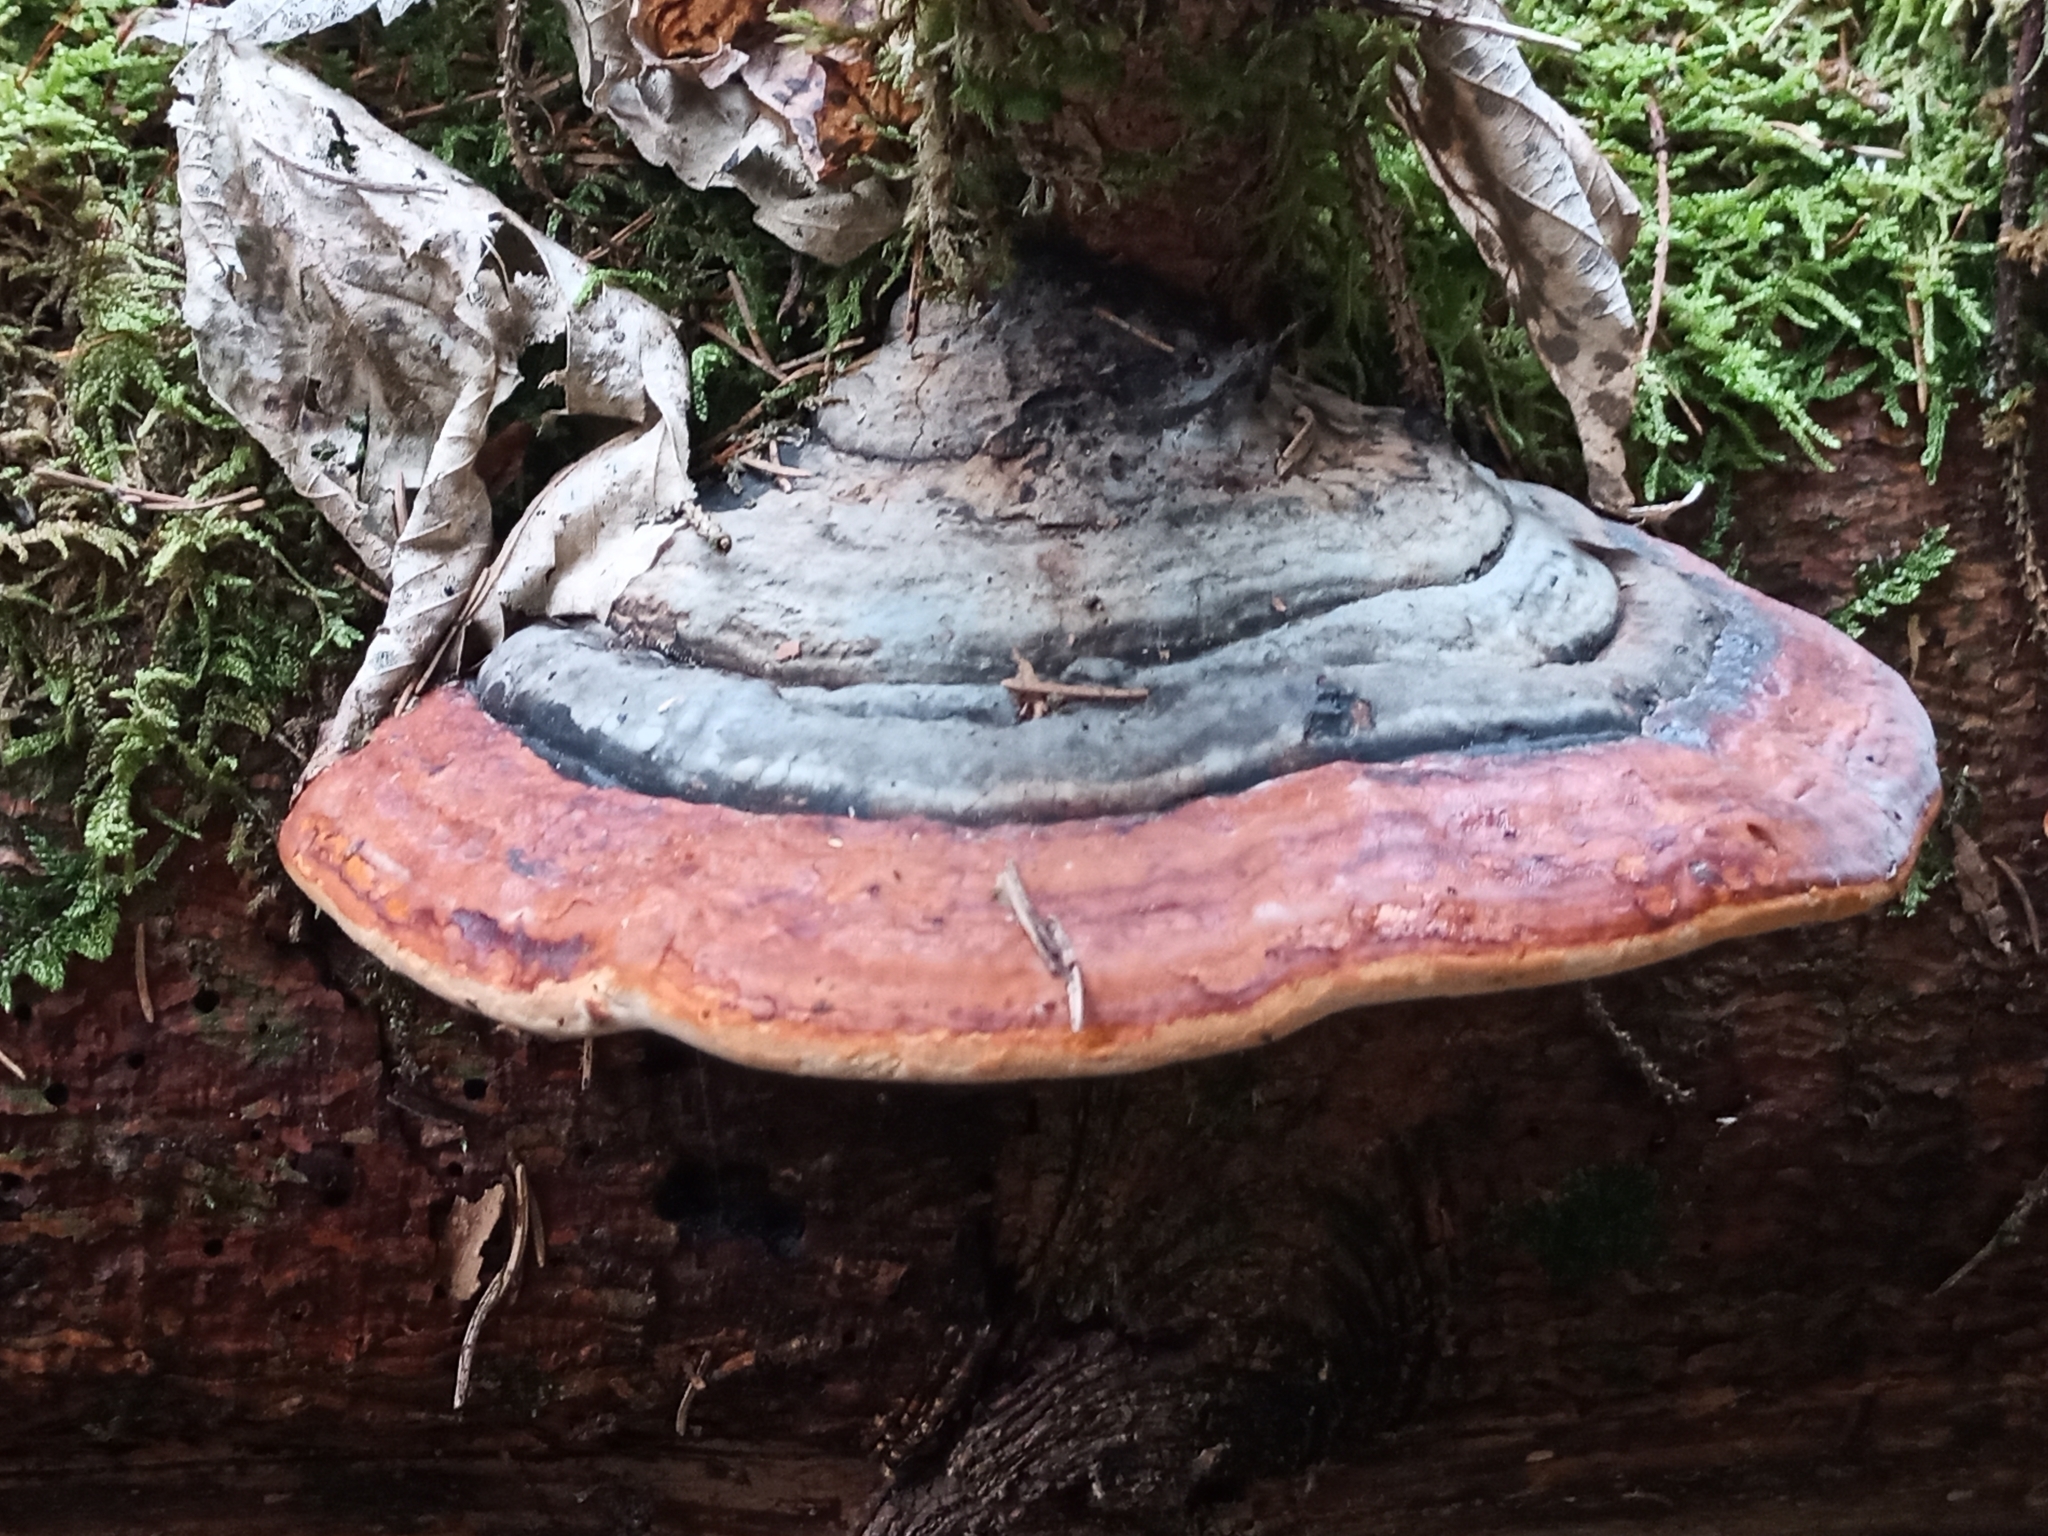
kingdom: Fungi
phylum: Basidiomycota
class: Agaricomycetes
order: Polyporales
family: Fomitopsidaceae
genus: Fomitopsis
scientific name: Fomitopsis pinicola
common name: Red-belted bracket
